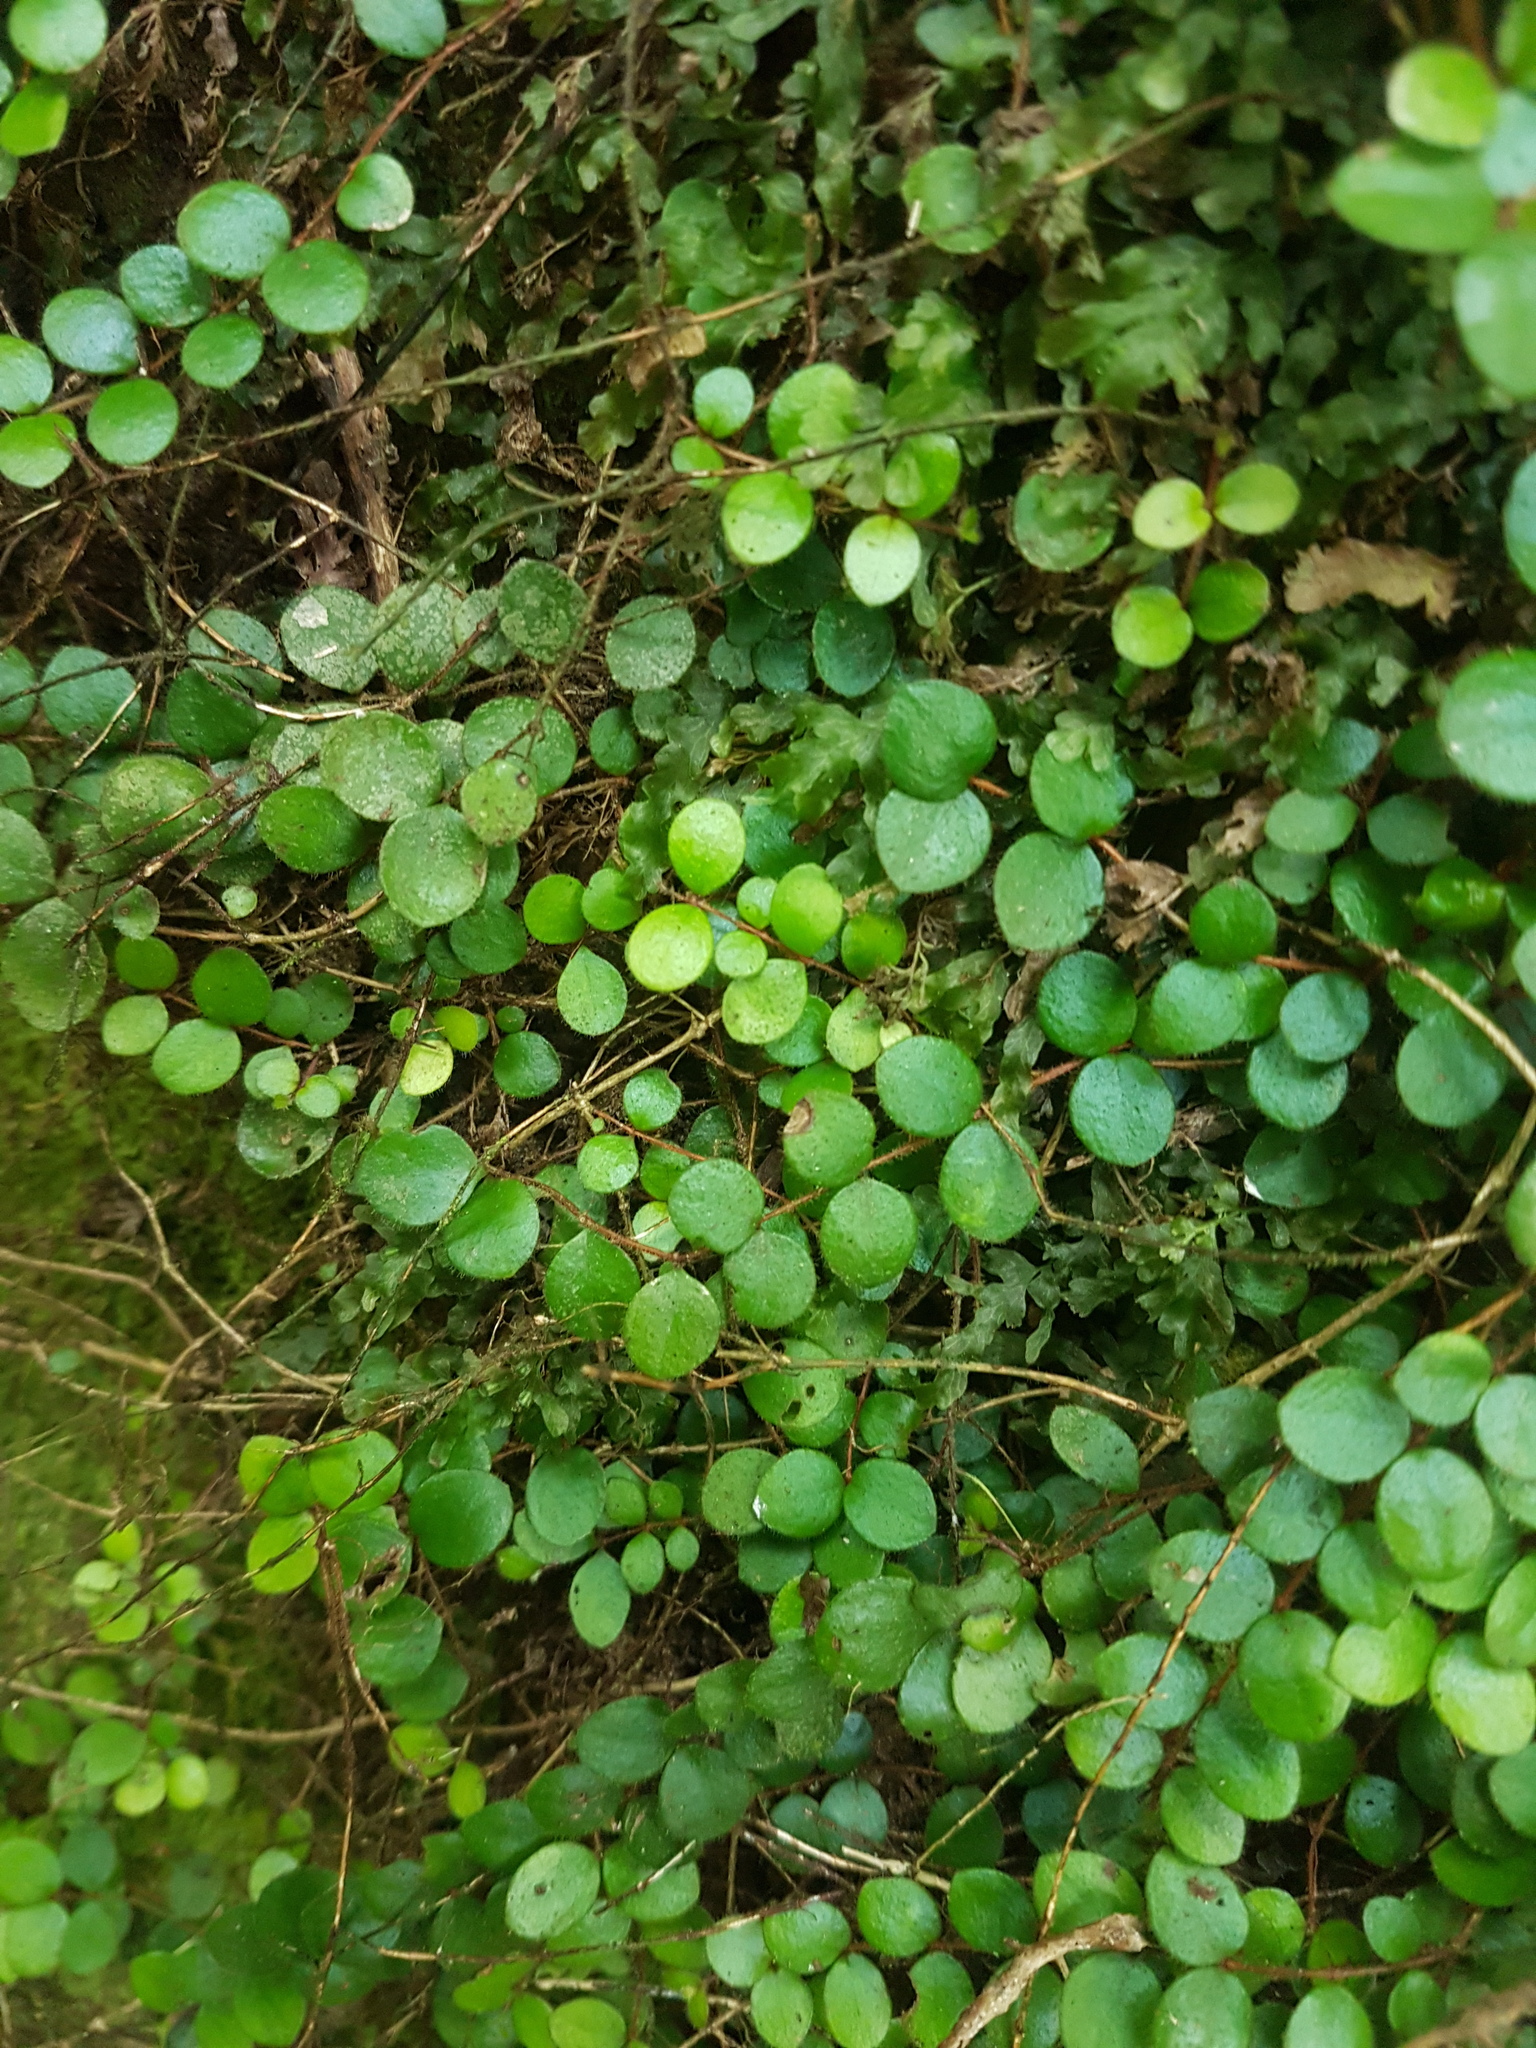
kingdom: Plantae
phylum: Tracheophyta
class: Magnoliopsida
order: Myrtales
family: Myrtaceae
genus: Metrosideros
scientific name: Metrosideros carminea
